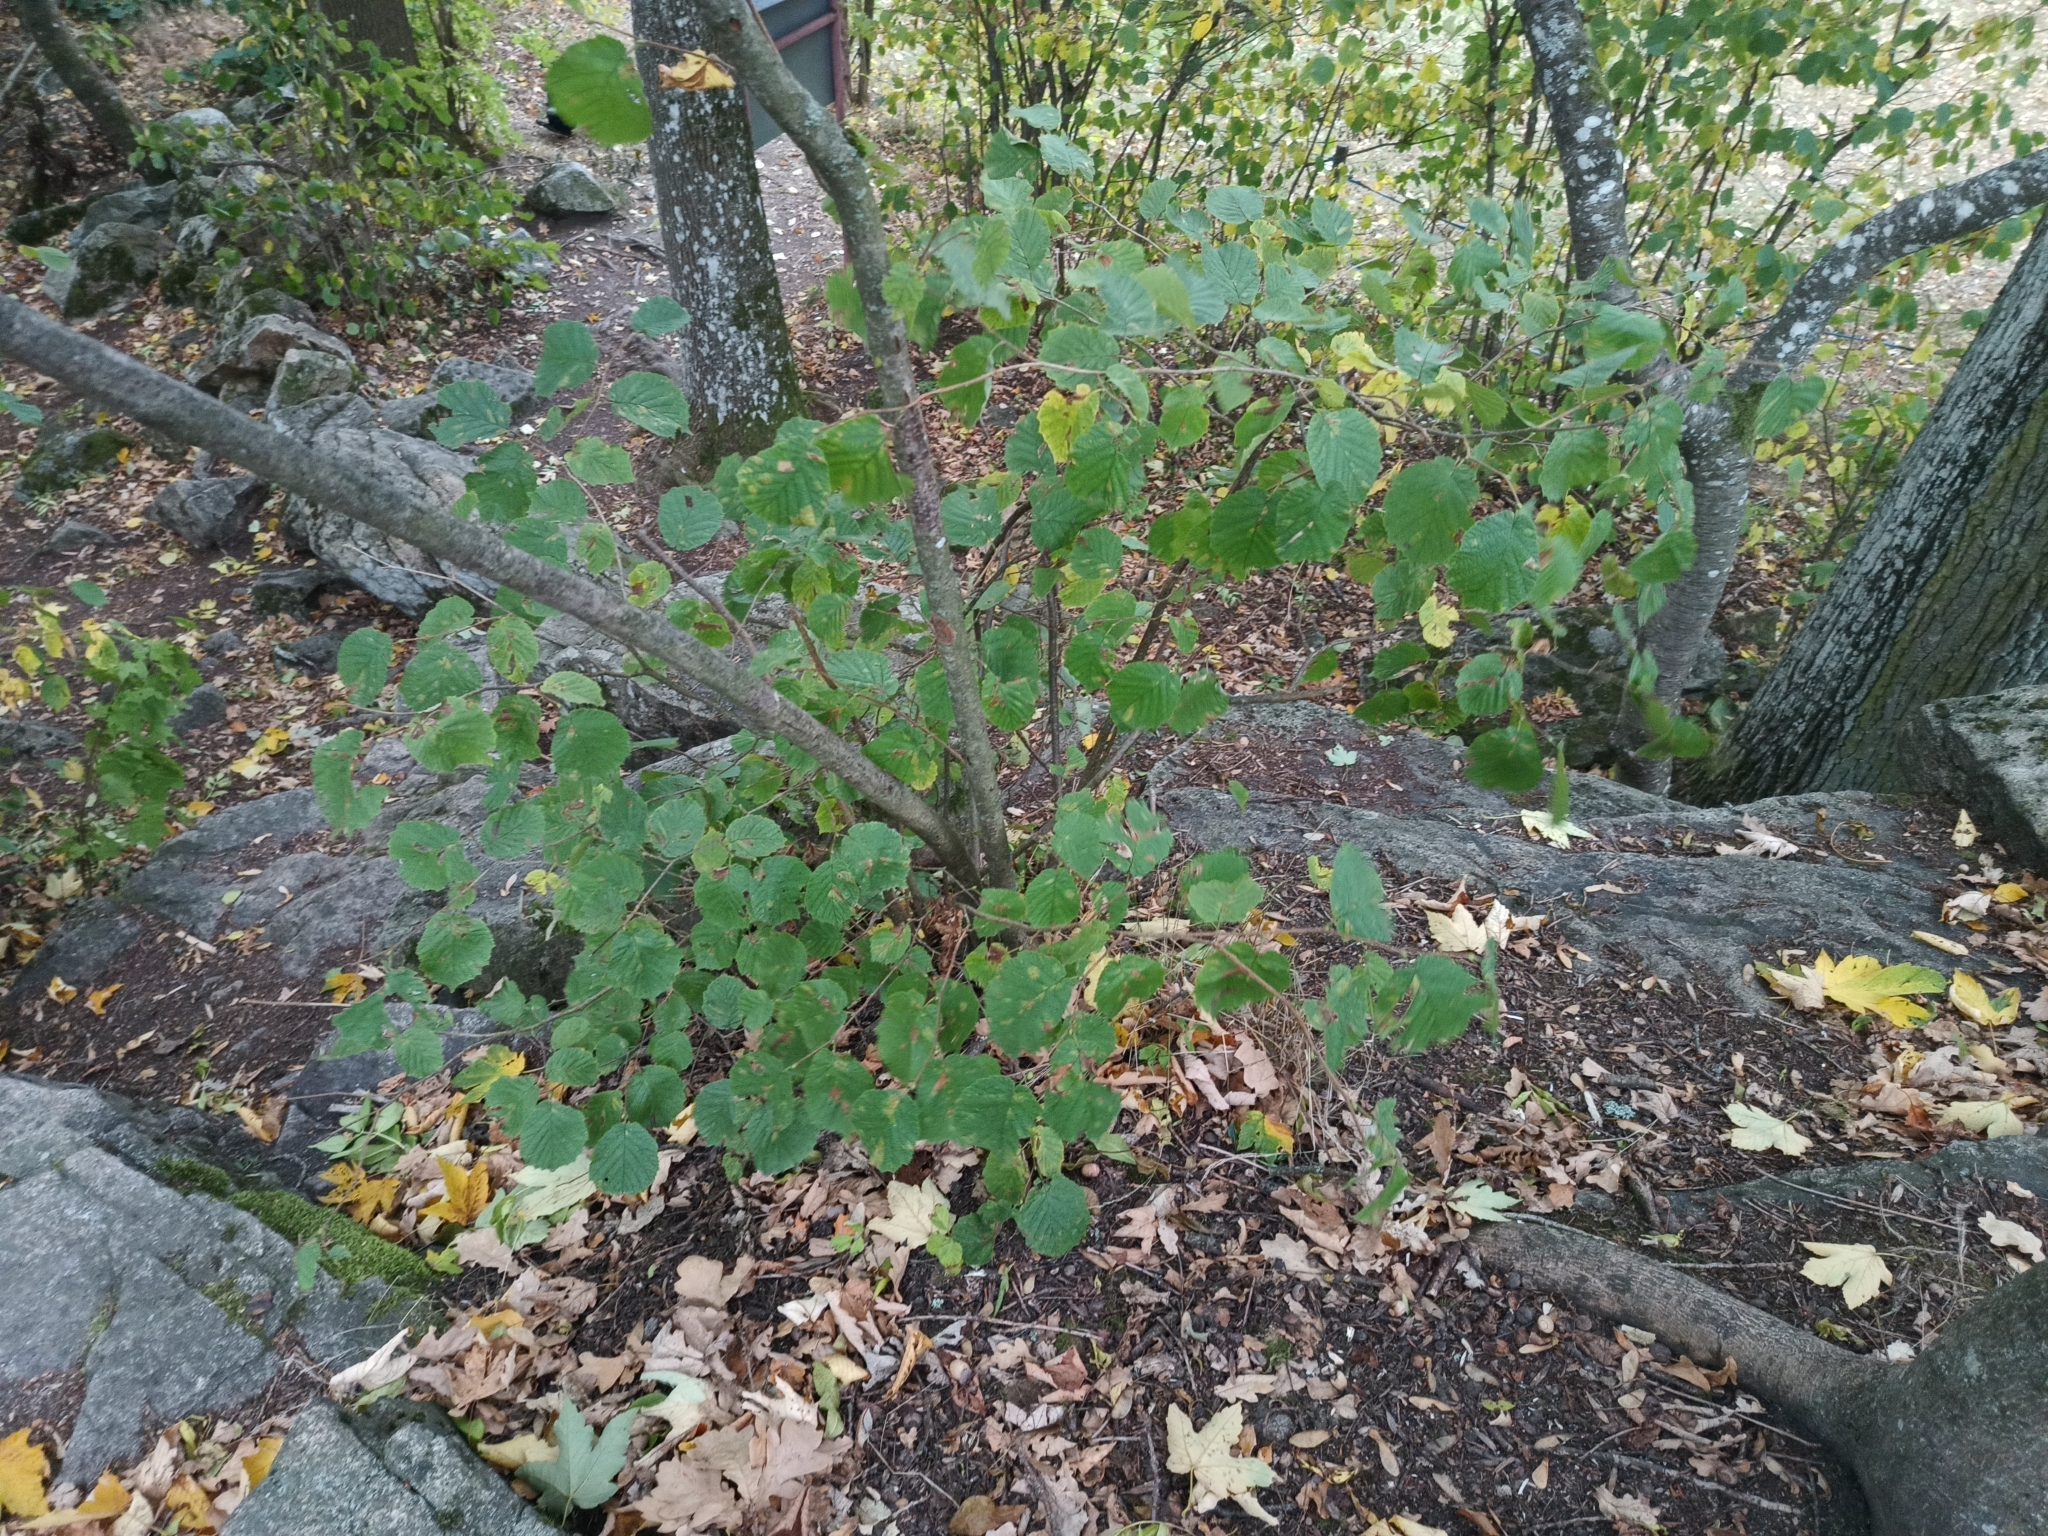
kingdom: Plantae
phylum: Tracheophyta
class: Magnoliopsida
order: Fagales
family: Betulaceae
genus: Corylus
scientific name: Corylus avellana
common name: European hazel
